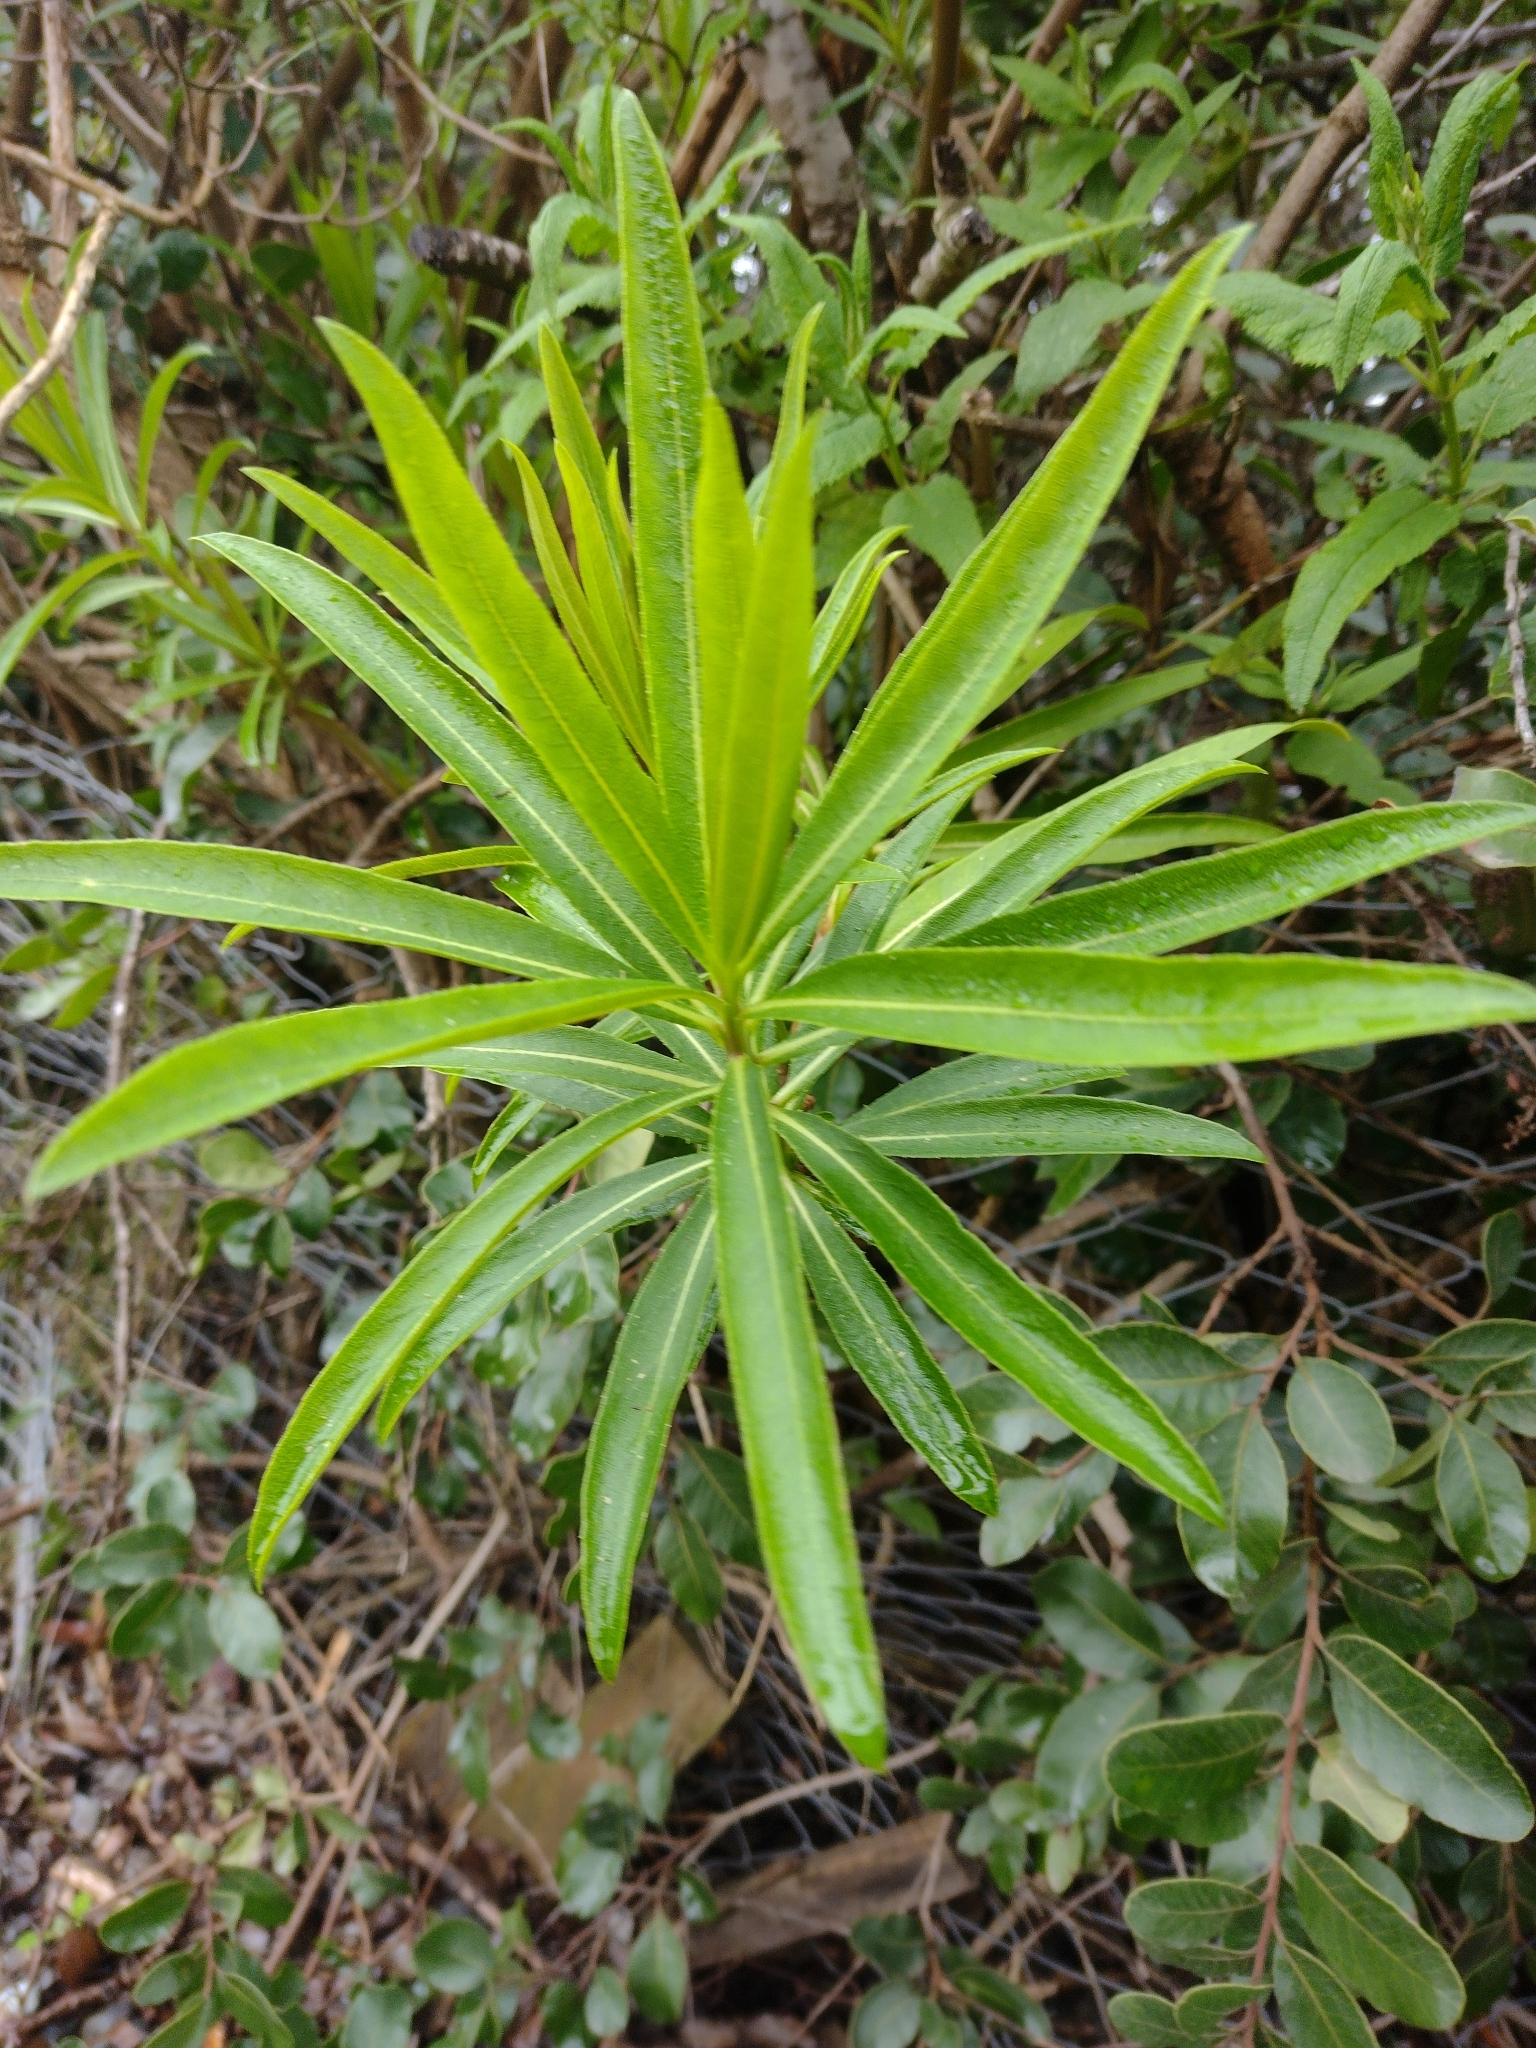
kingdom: Plantae
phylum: Tracheophyta
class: Magnoliopsida
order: Asterales
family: Campanulaceae
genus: Lobelia
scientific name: Lobelia excelsa
